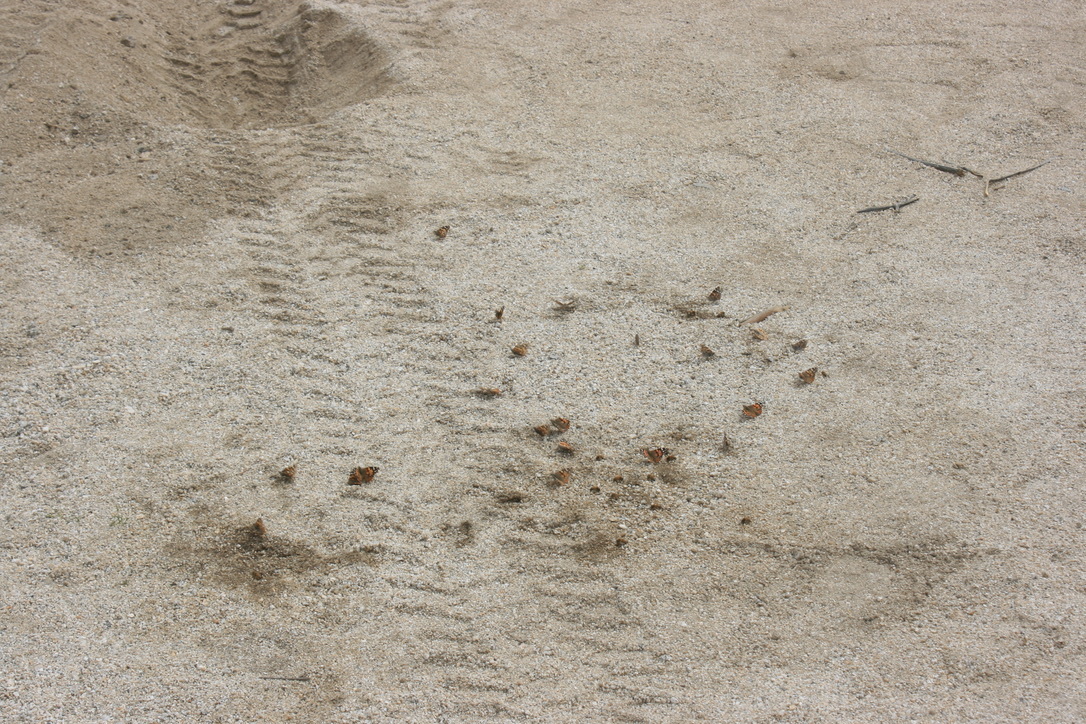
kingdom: Animalia
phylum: Arthropoda
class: Insecta
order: Lepidoptera
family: Nymphalidae
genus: Vanessa
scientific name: Vanessa cardui
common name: Painted lady
